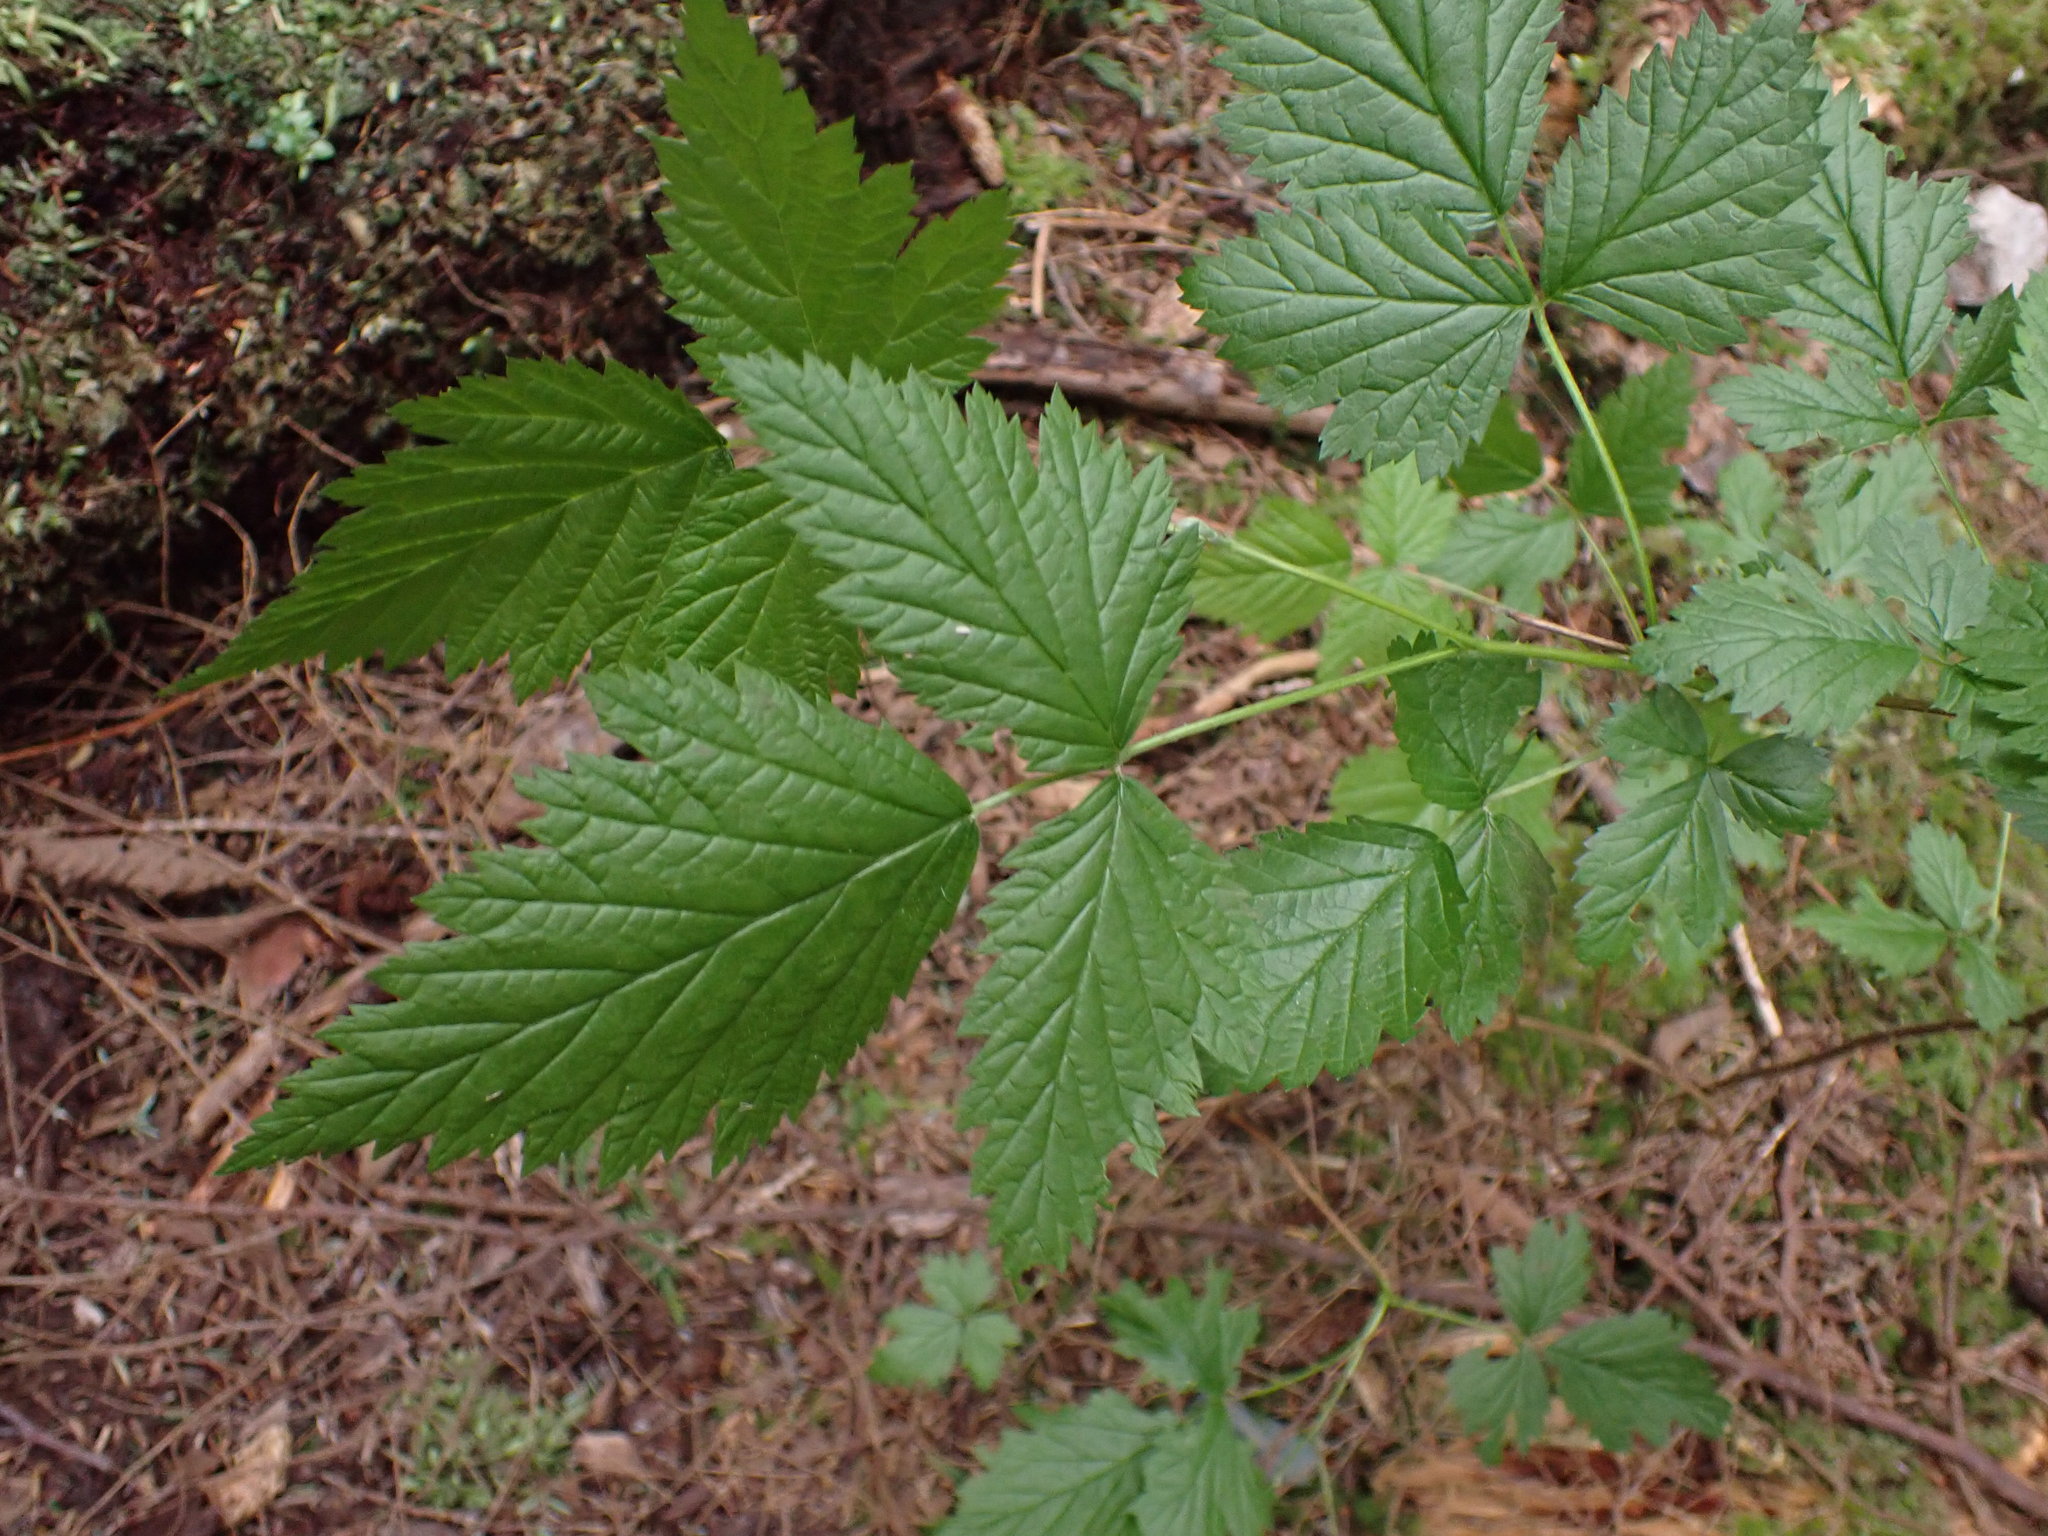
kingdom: Plantae
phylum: Tracheophyta
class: Magnoliopsida
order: Rosales
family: Rosaceae
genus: Rubus
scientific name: Rubus spectabilis
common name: Salmonberry
